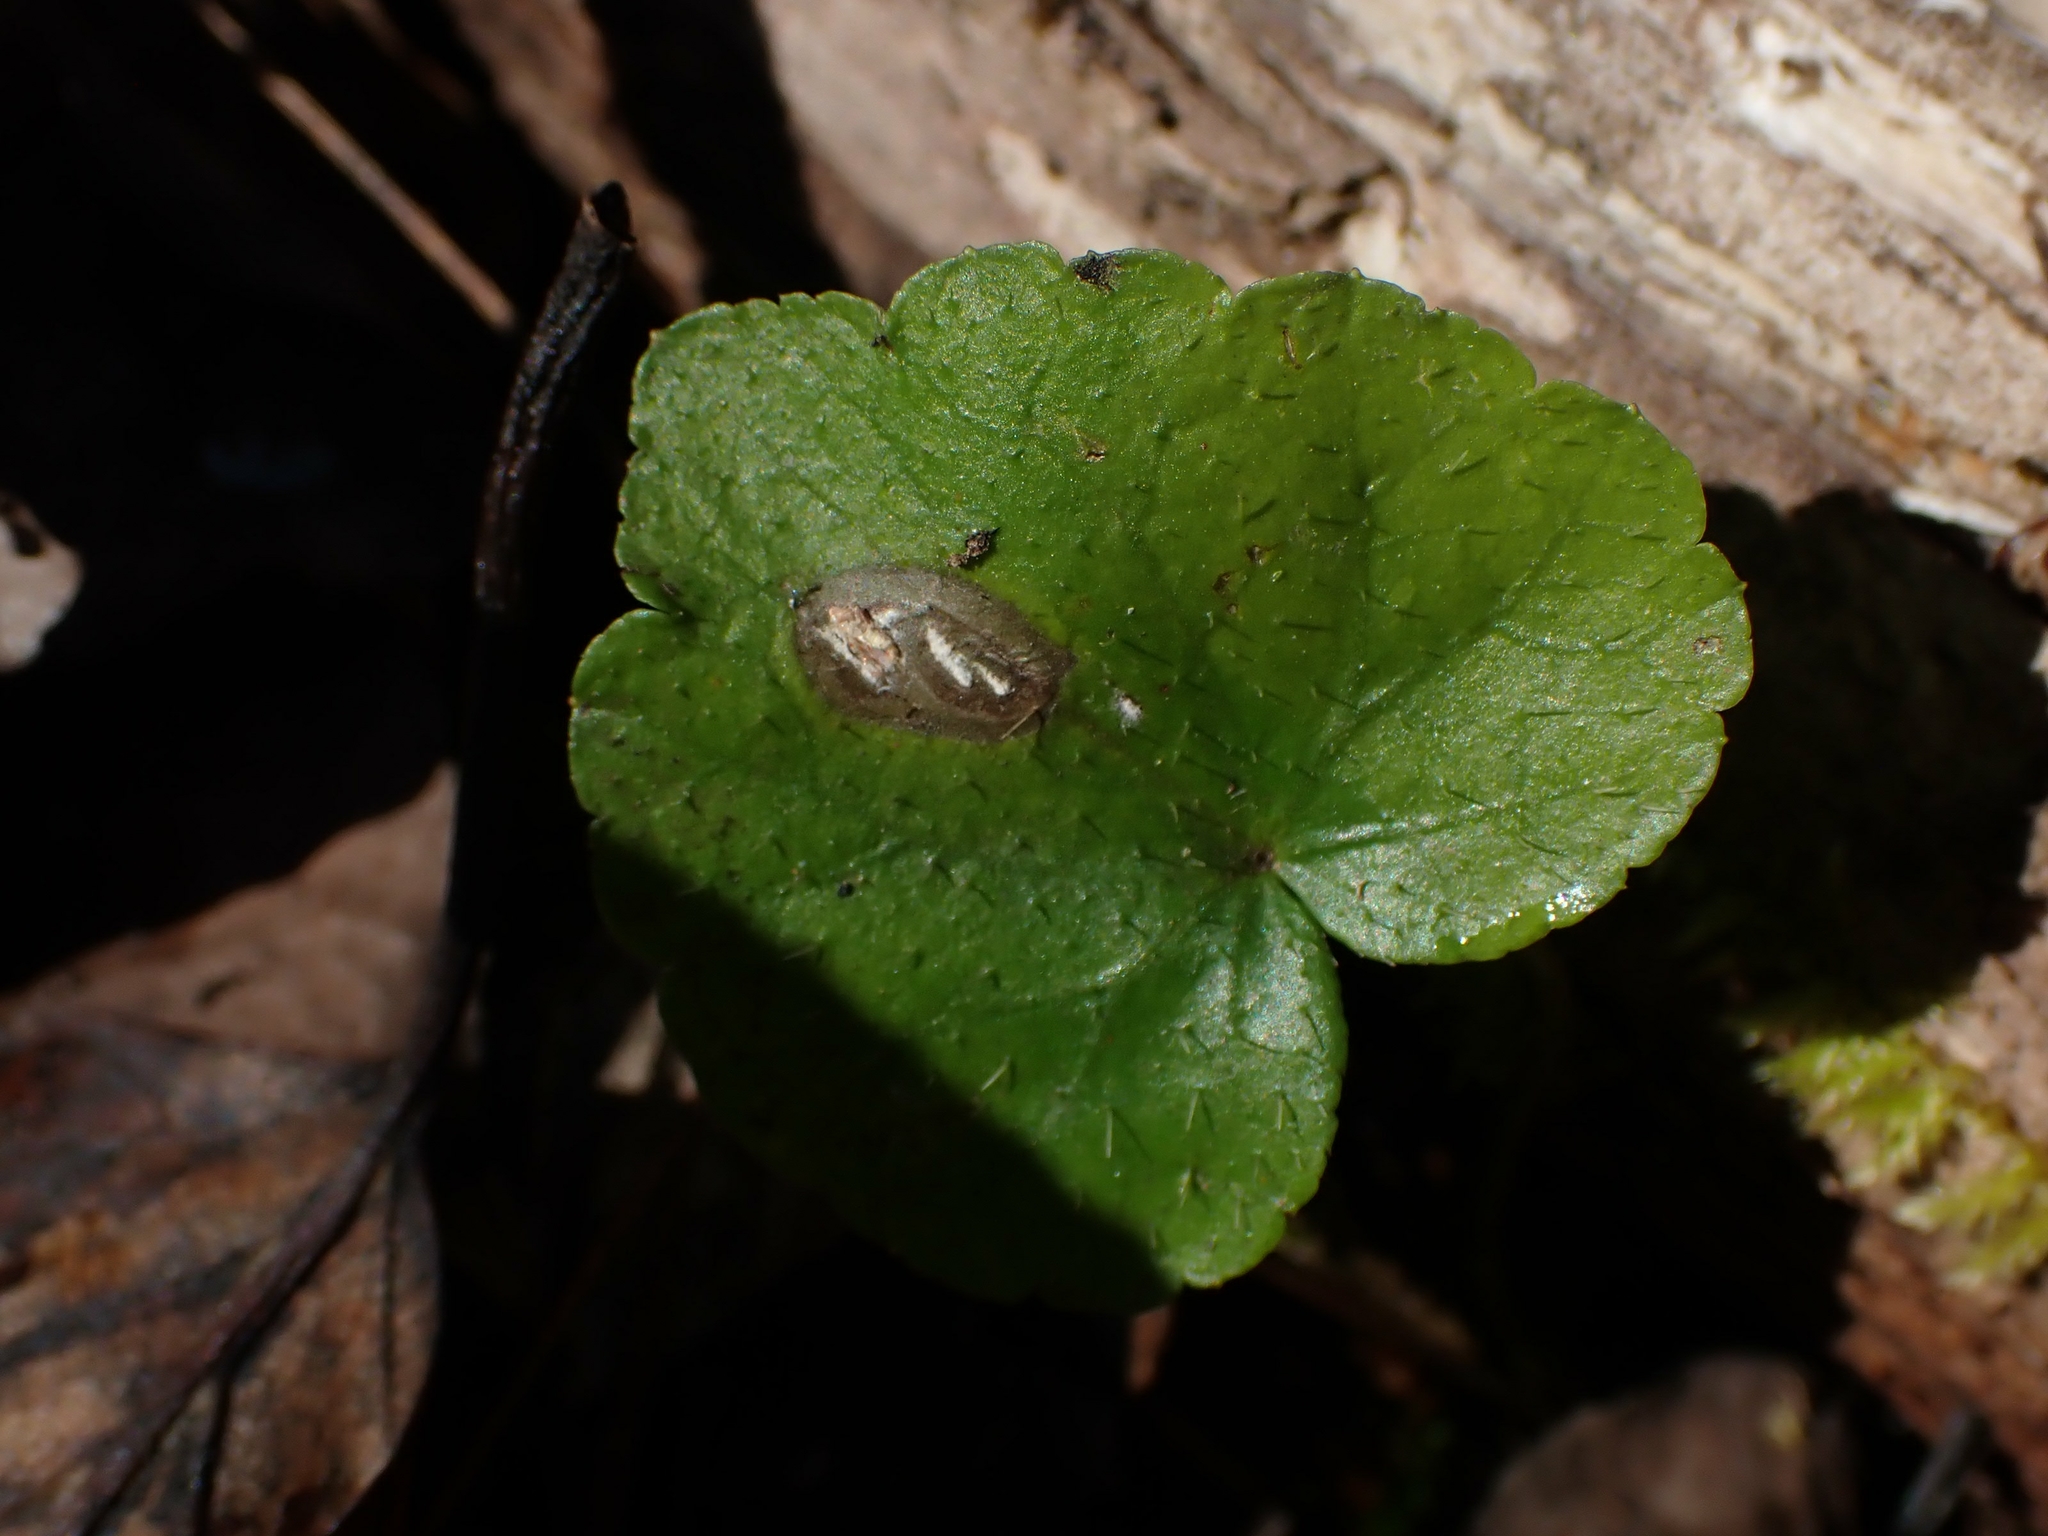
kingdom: Plantae
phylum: Tracheophyta
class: Magnoliopsida
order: Saxifragales
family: Saxifragaceae
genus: Mitella
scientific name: Mitella nuda
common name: Bare-stemmed bishop's-cap
